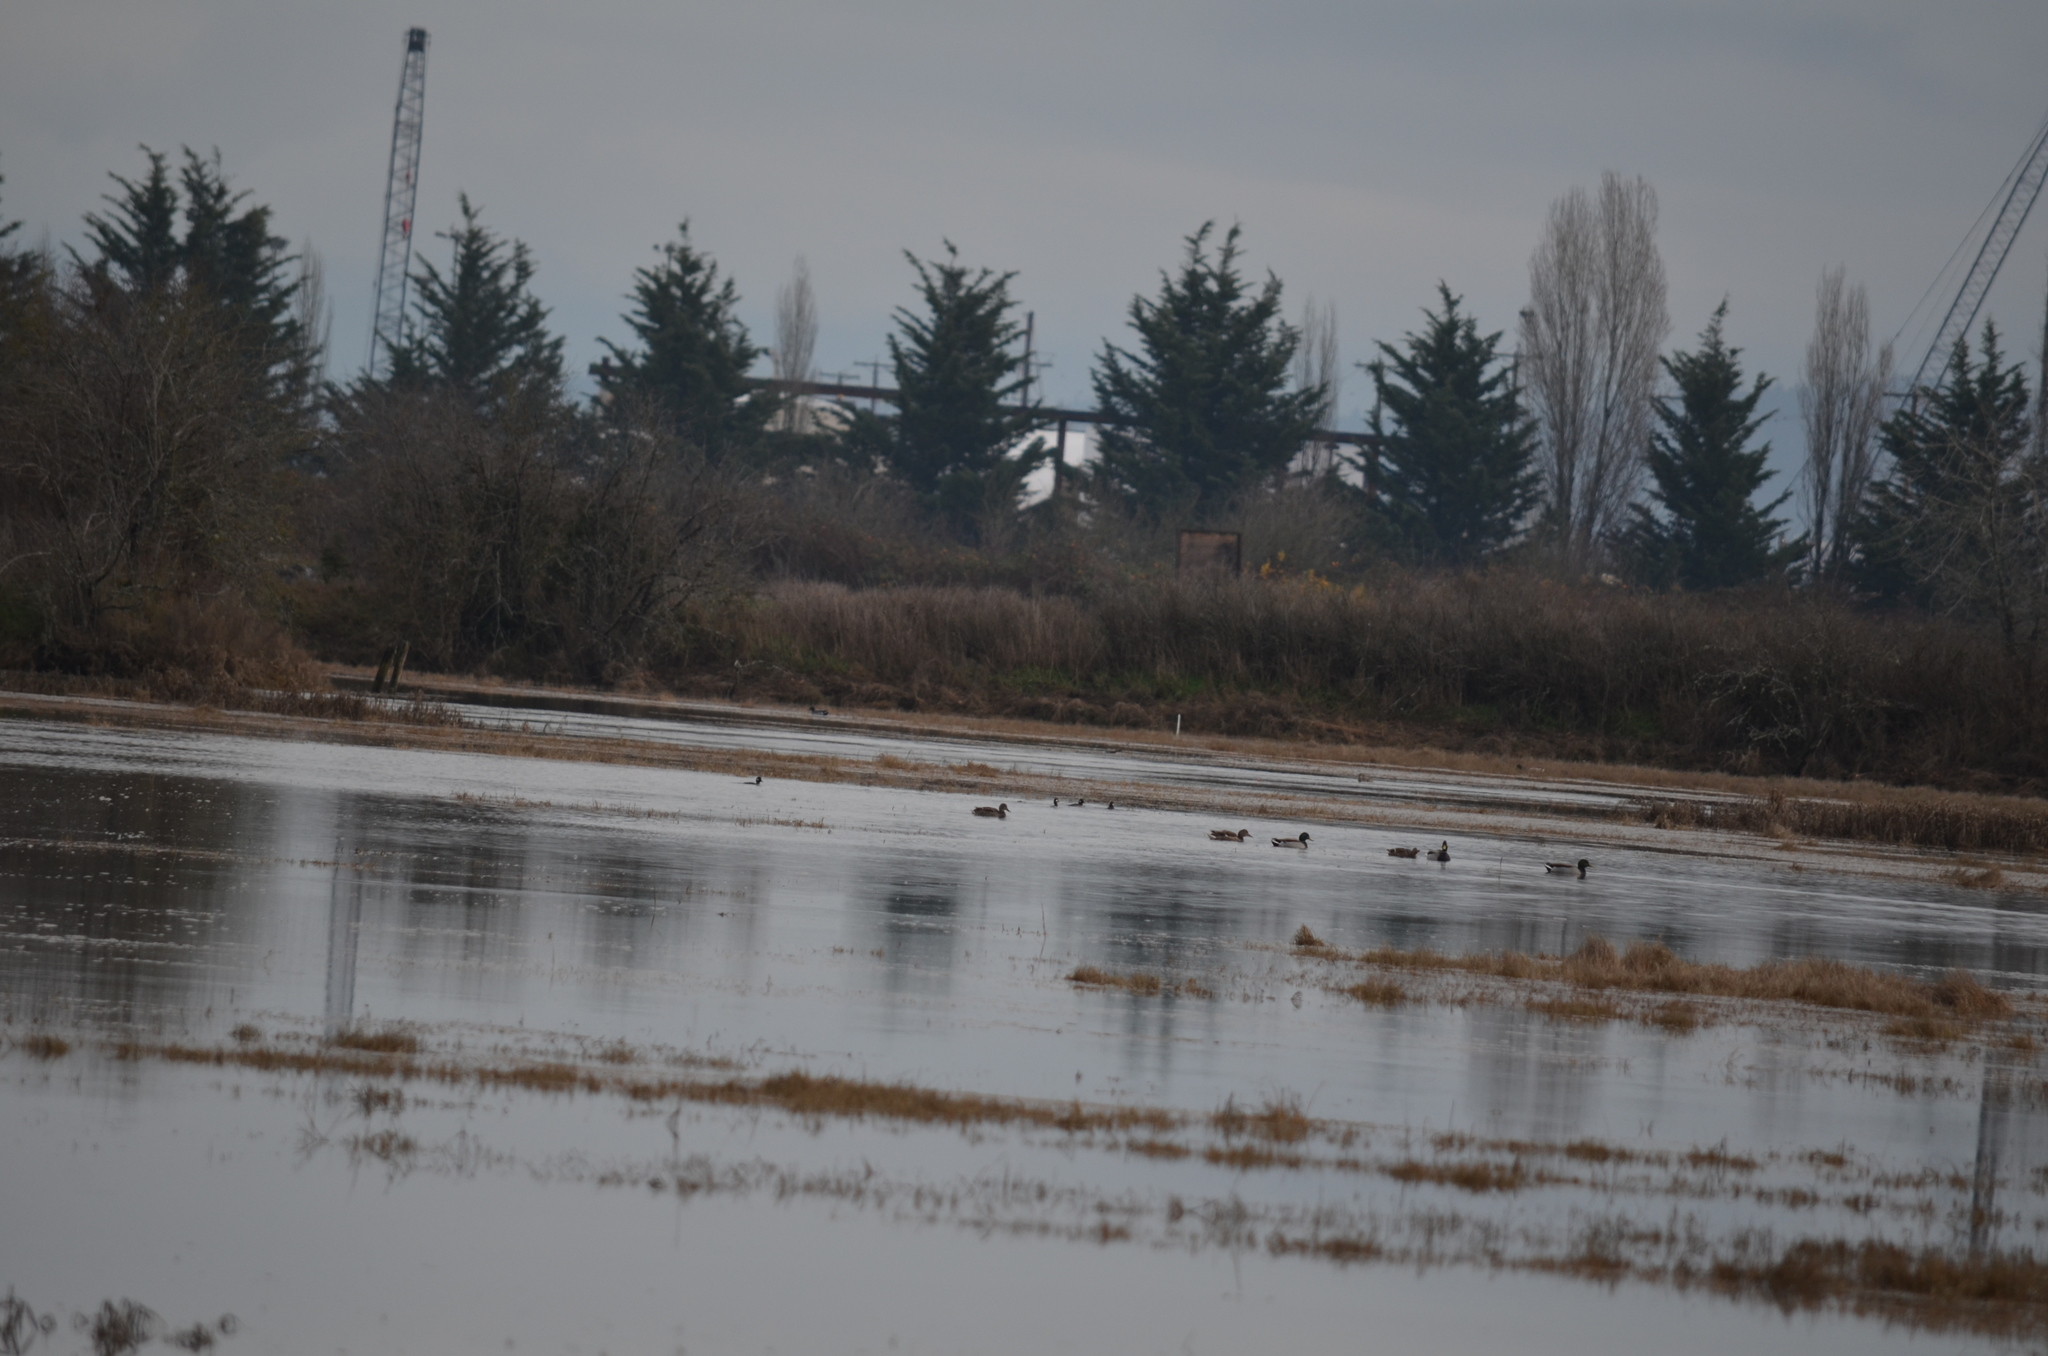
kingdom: Animalia
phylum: Chordata
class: Aves
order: Anseriformes
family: Anatidae
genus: Anas
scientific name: Anas platyrhynchos
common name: Mallard
